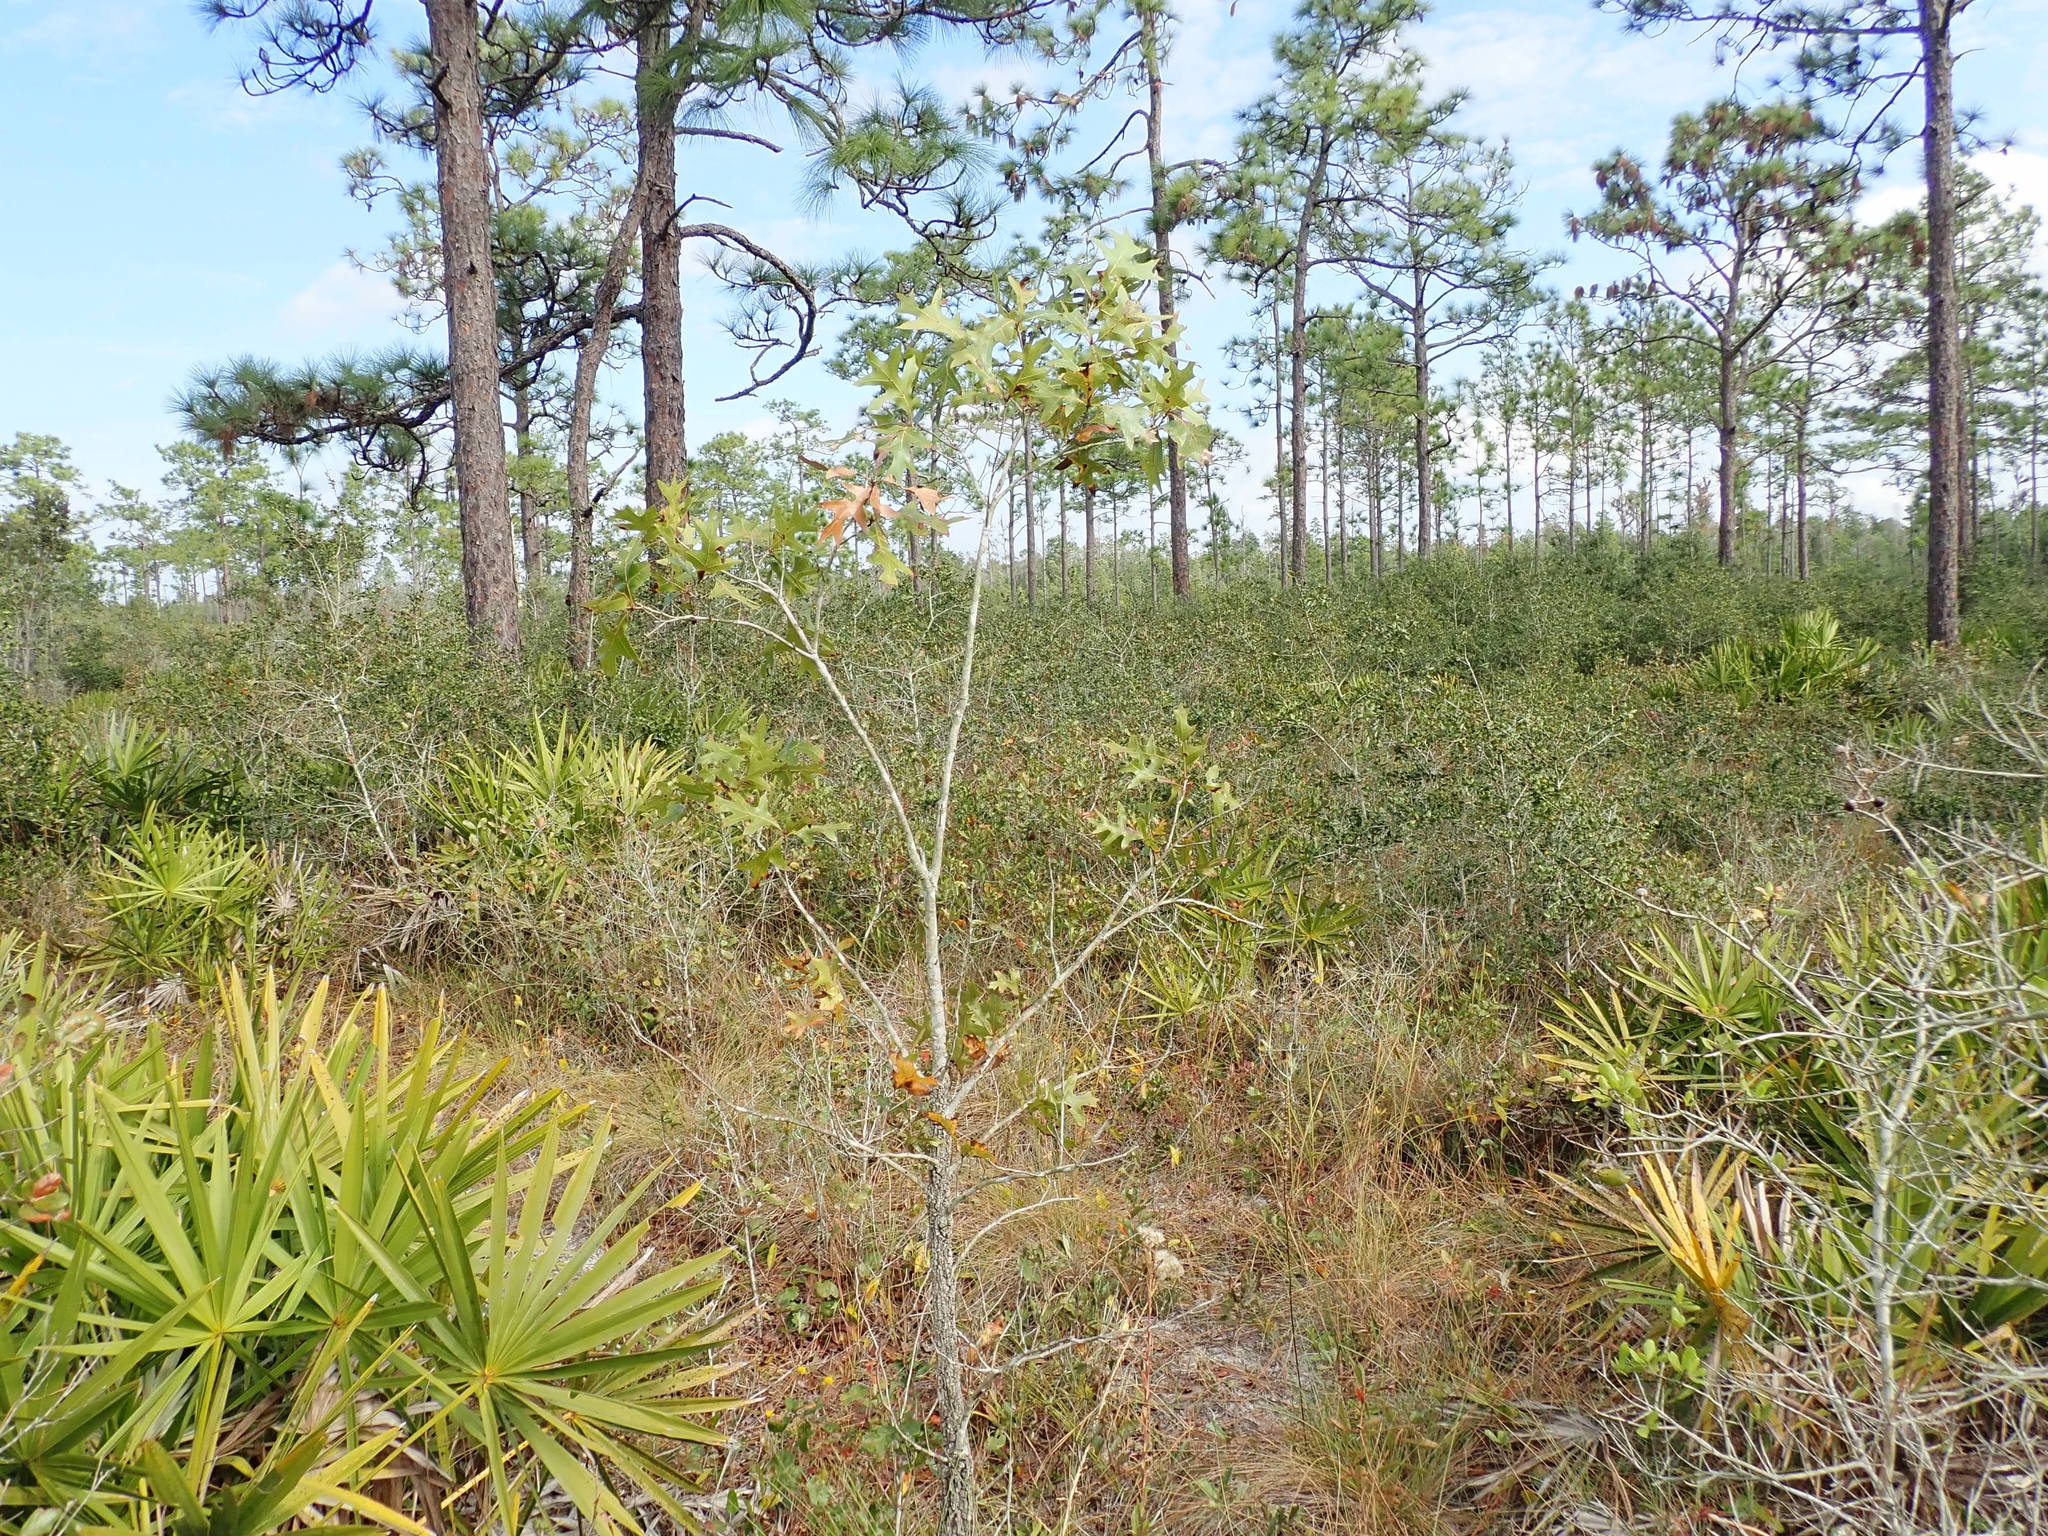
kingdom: Plantae
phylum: Tracheophyta
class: Magnoliopsida
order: Fagales
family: Fagaceae
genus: Quercus
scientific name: Quercus laevis
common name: Turkey oak
